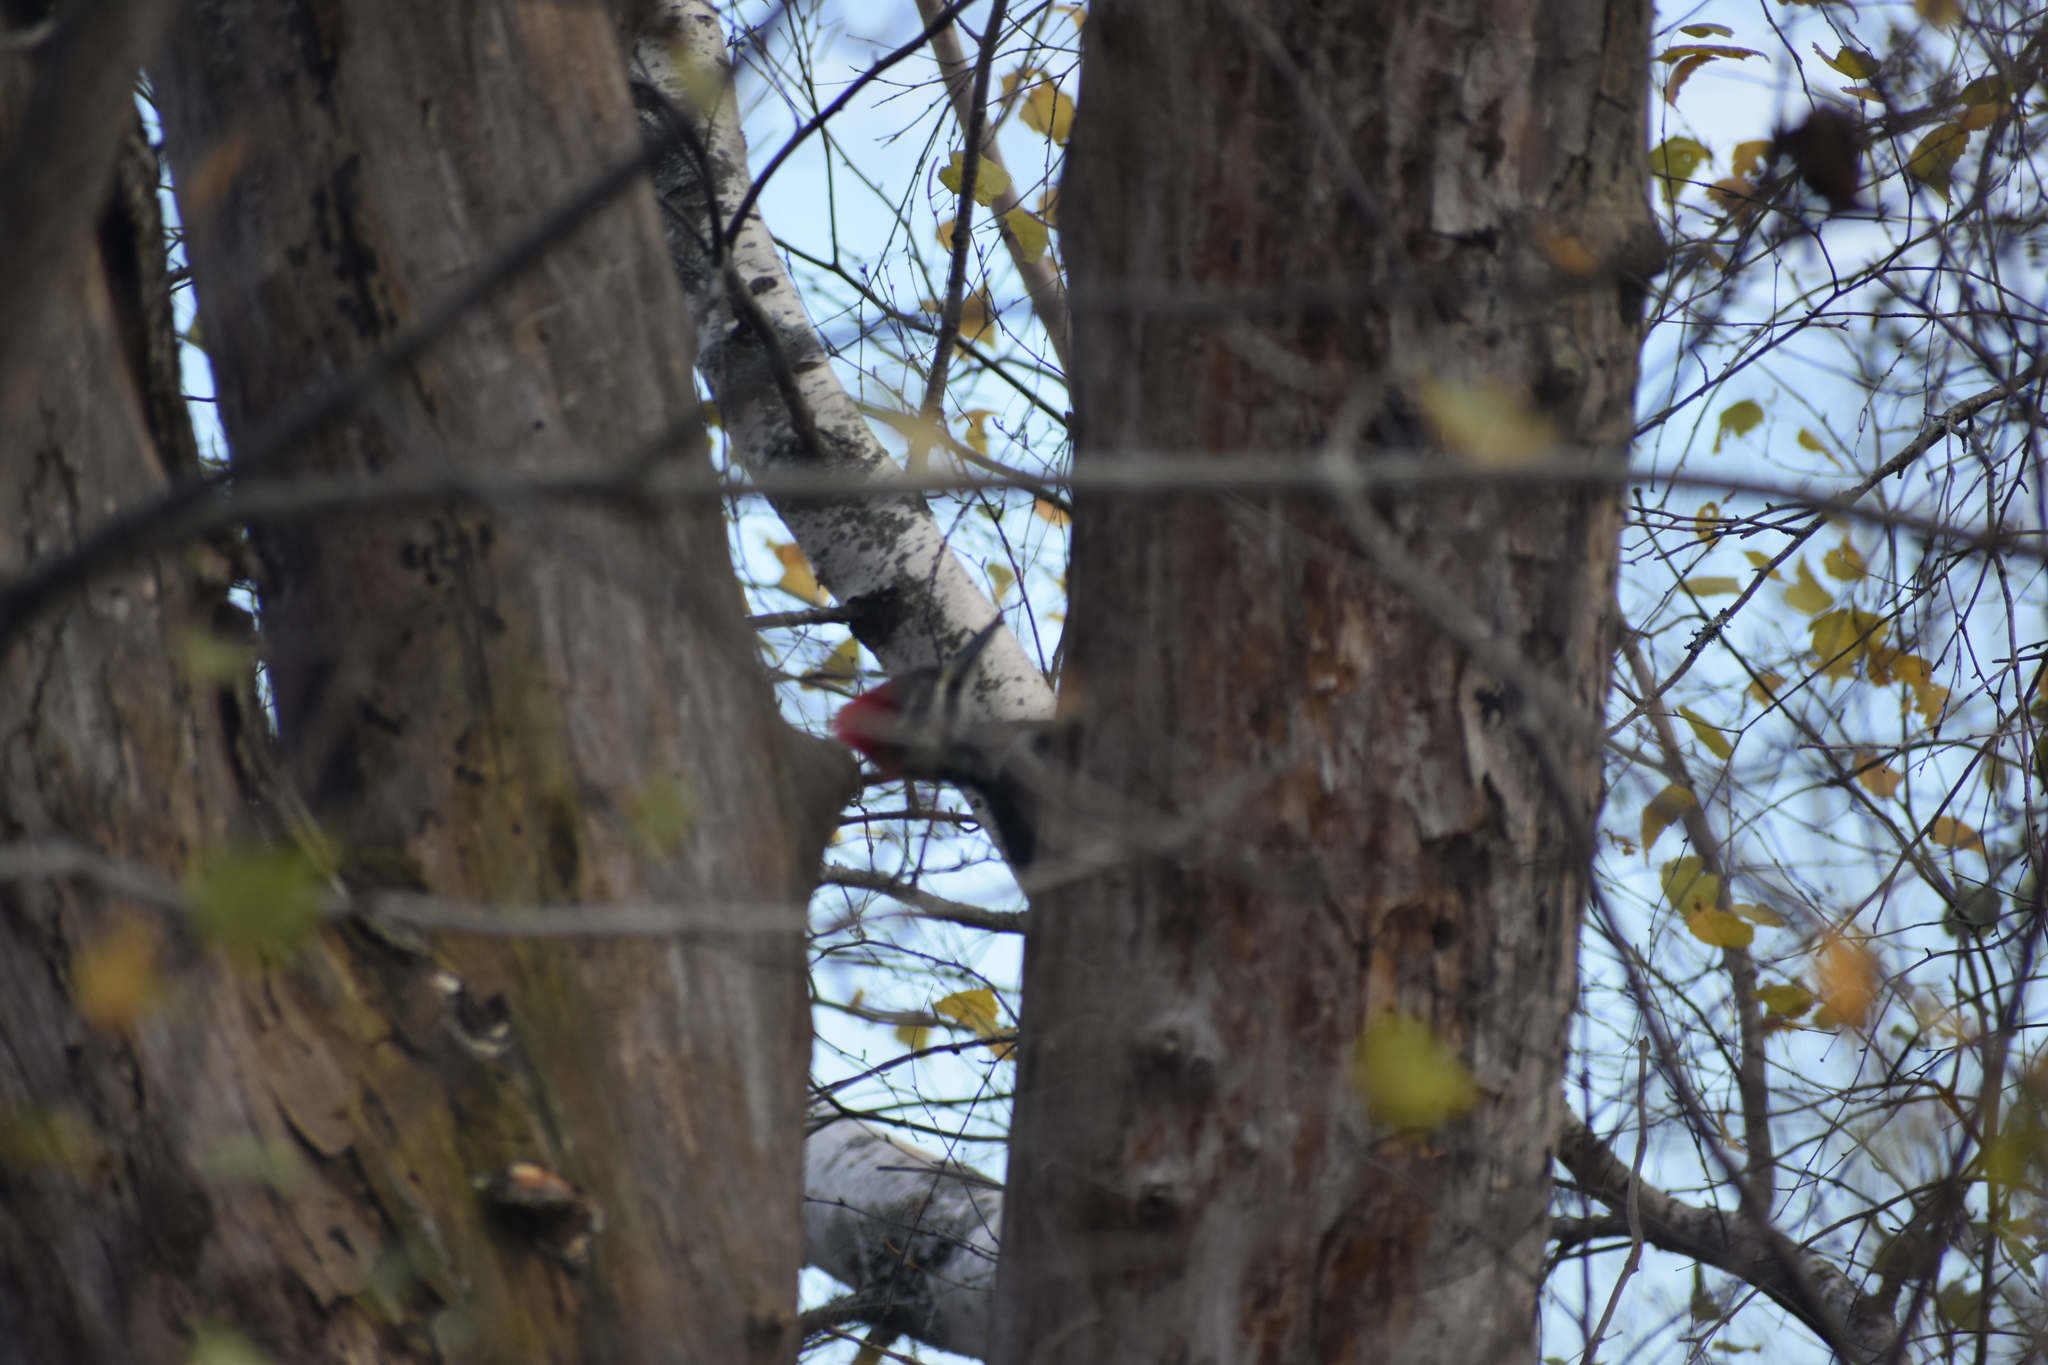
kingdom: Animalia
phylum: Chordata
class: Aves
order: Piciformes
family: Picidae
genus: Dryocopus
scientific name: Dryocopus pileatus
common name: Pileated woodpecker
